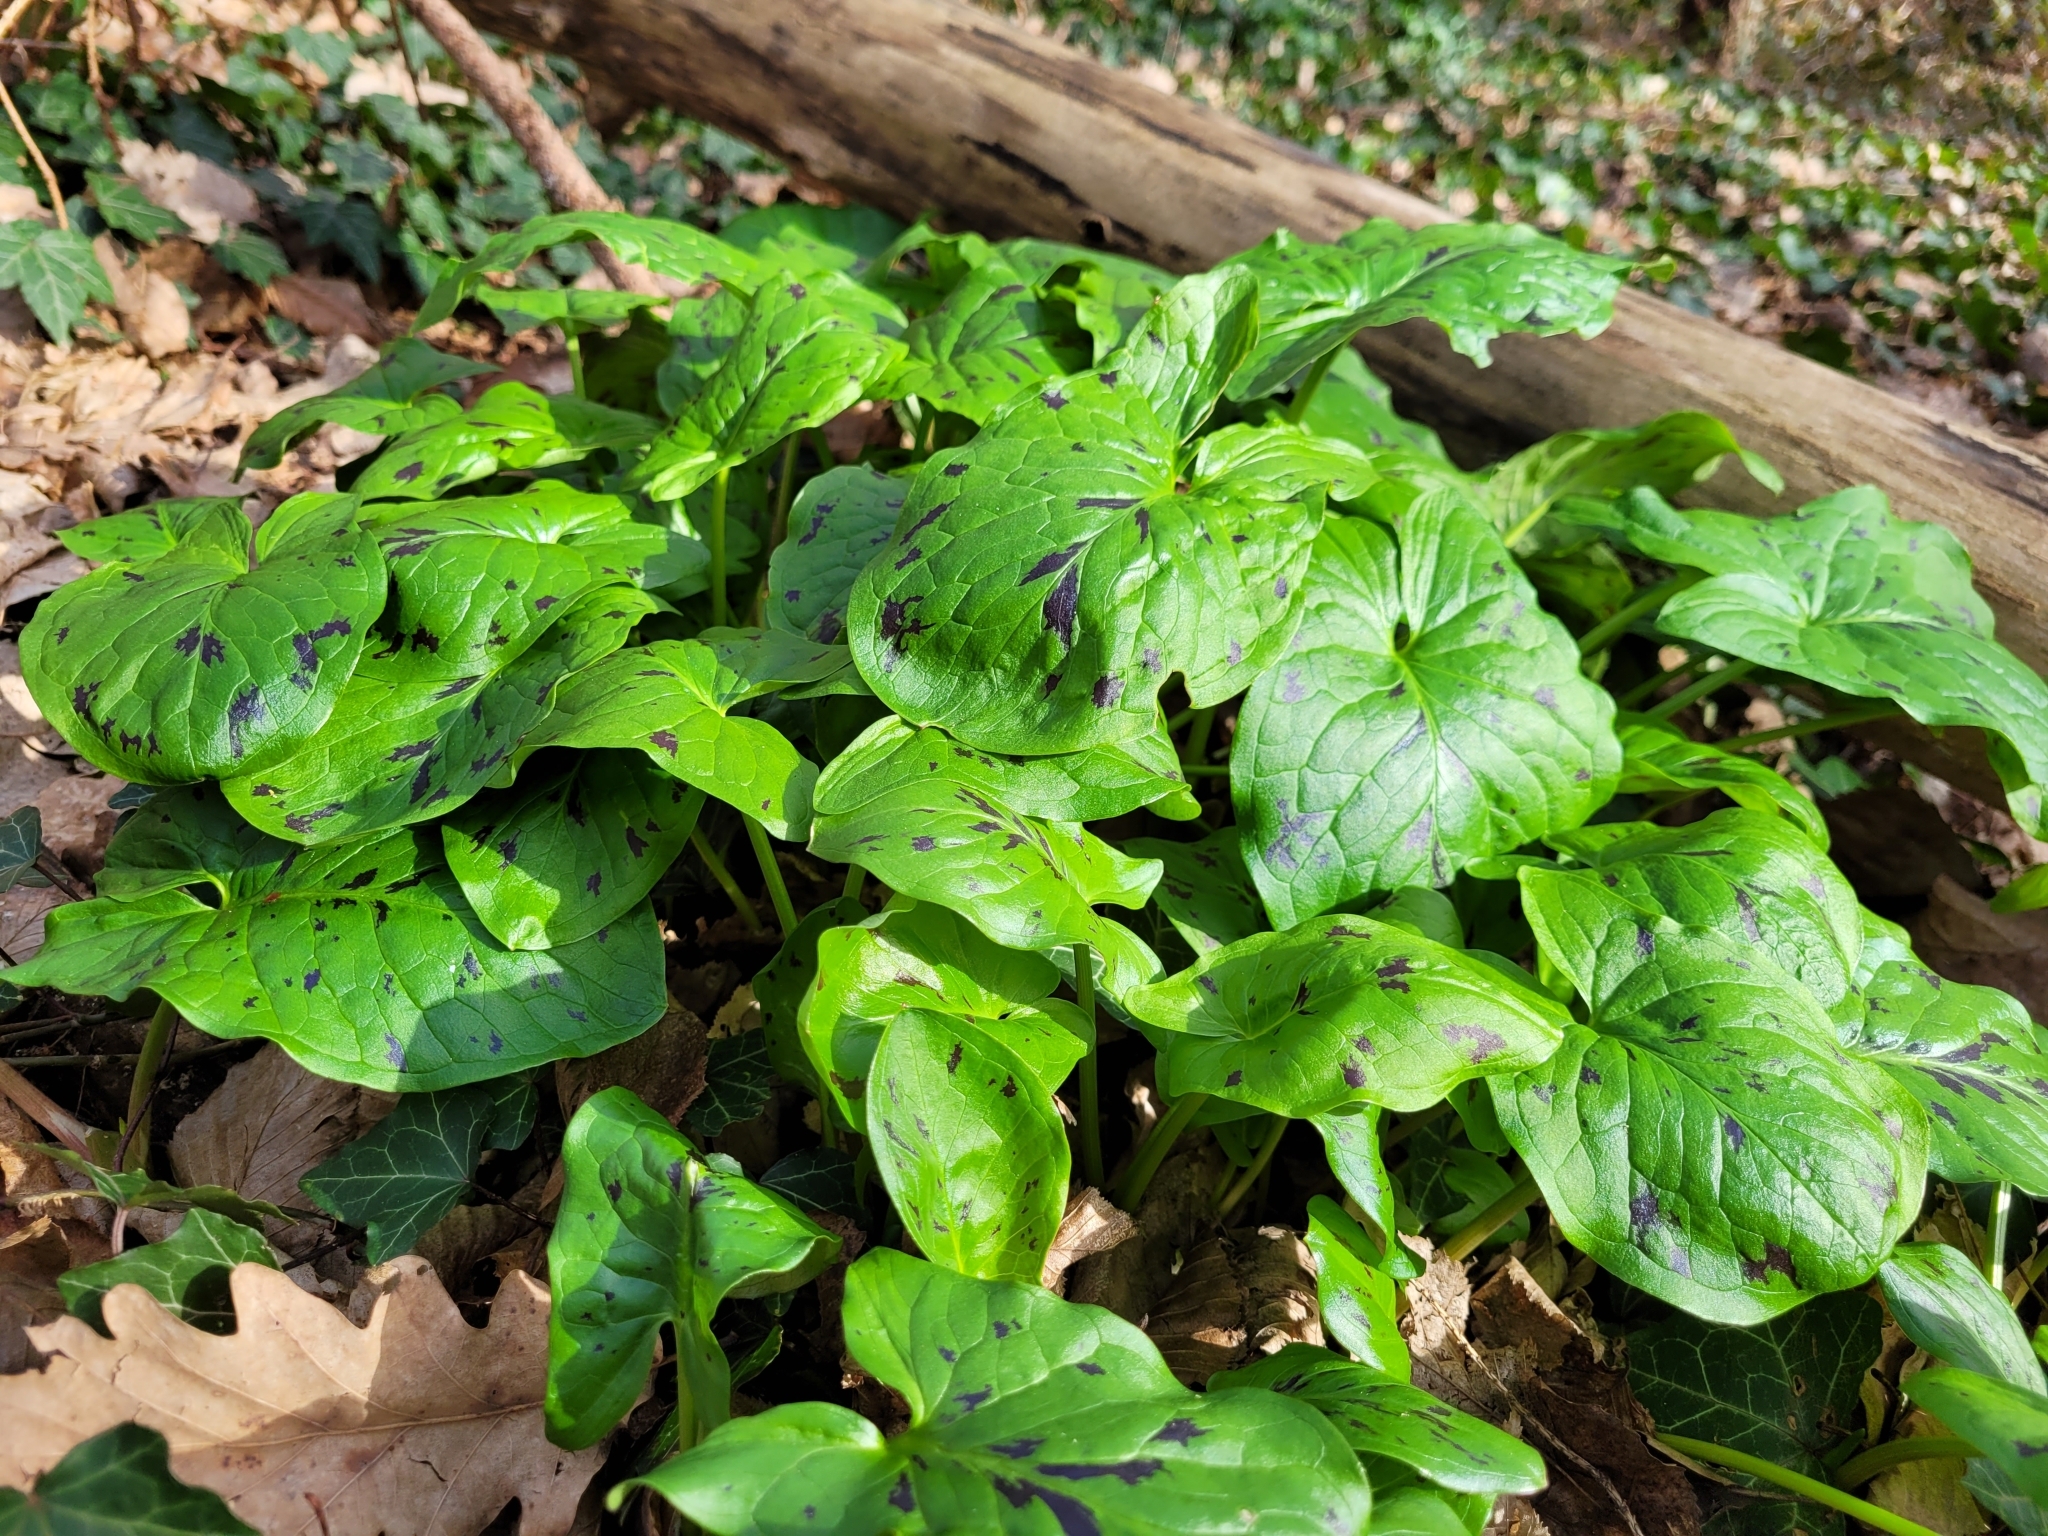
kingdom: Plantae
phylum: Tracheophyta
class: Liliopsida
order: Alismatales
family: Araceae
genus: Arum
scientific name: Arum maculatum
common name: Lords-and-ladies
